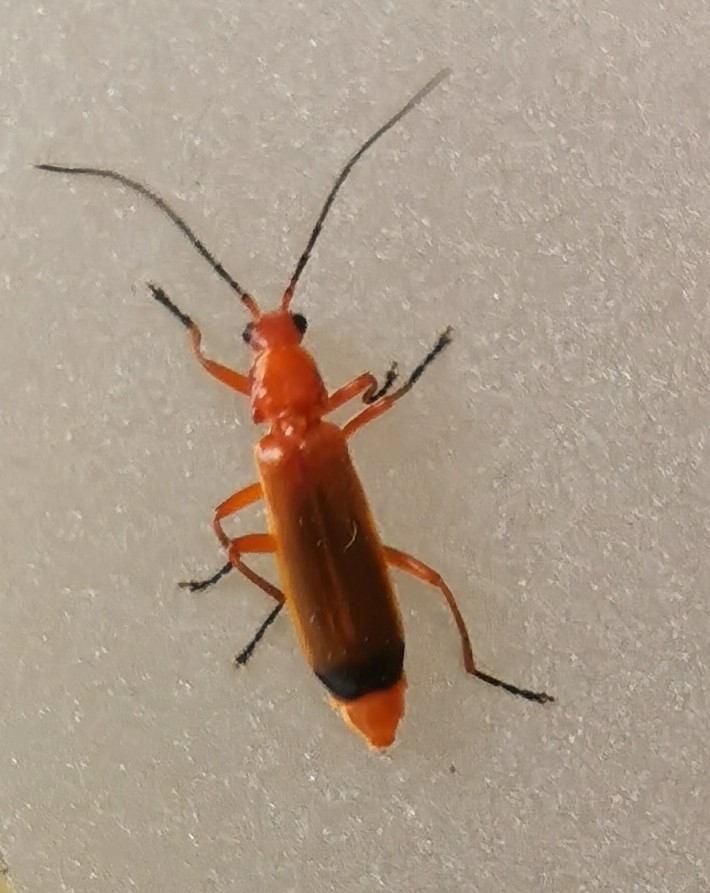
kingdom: Animalia
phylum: Arthropoda
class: Insecta
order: Coleoptera
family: Cantharidae
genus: Rhagonycha
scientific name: Rhagonycha fulva
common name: Common red soldier beetle
